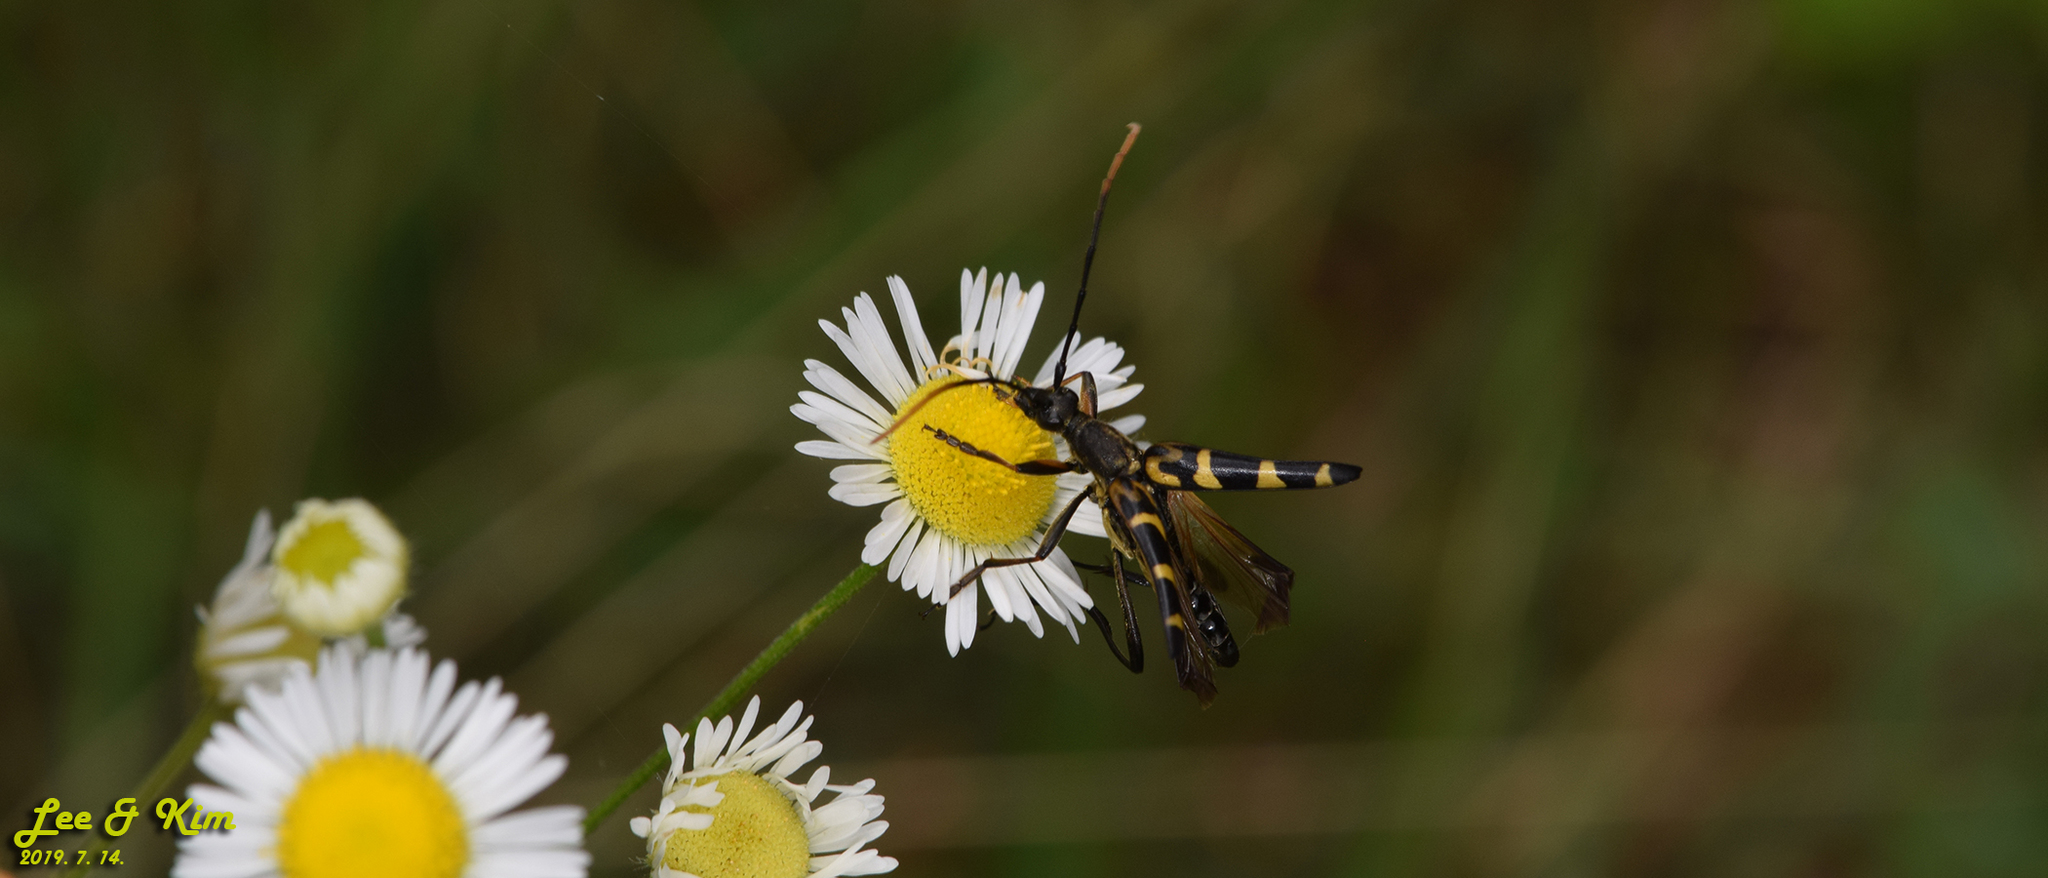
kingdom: Animalia
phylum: Arthropoda
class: Insecta
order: Coleoptera
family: Cerambycidae
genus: Leptura
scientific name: Leptura annularis
